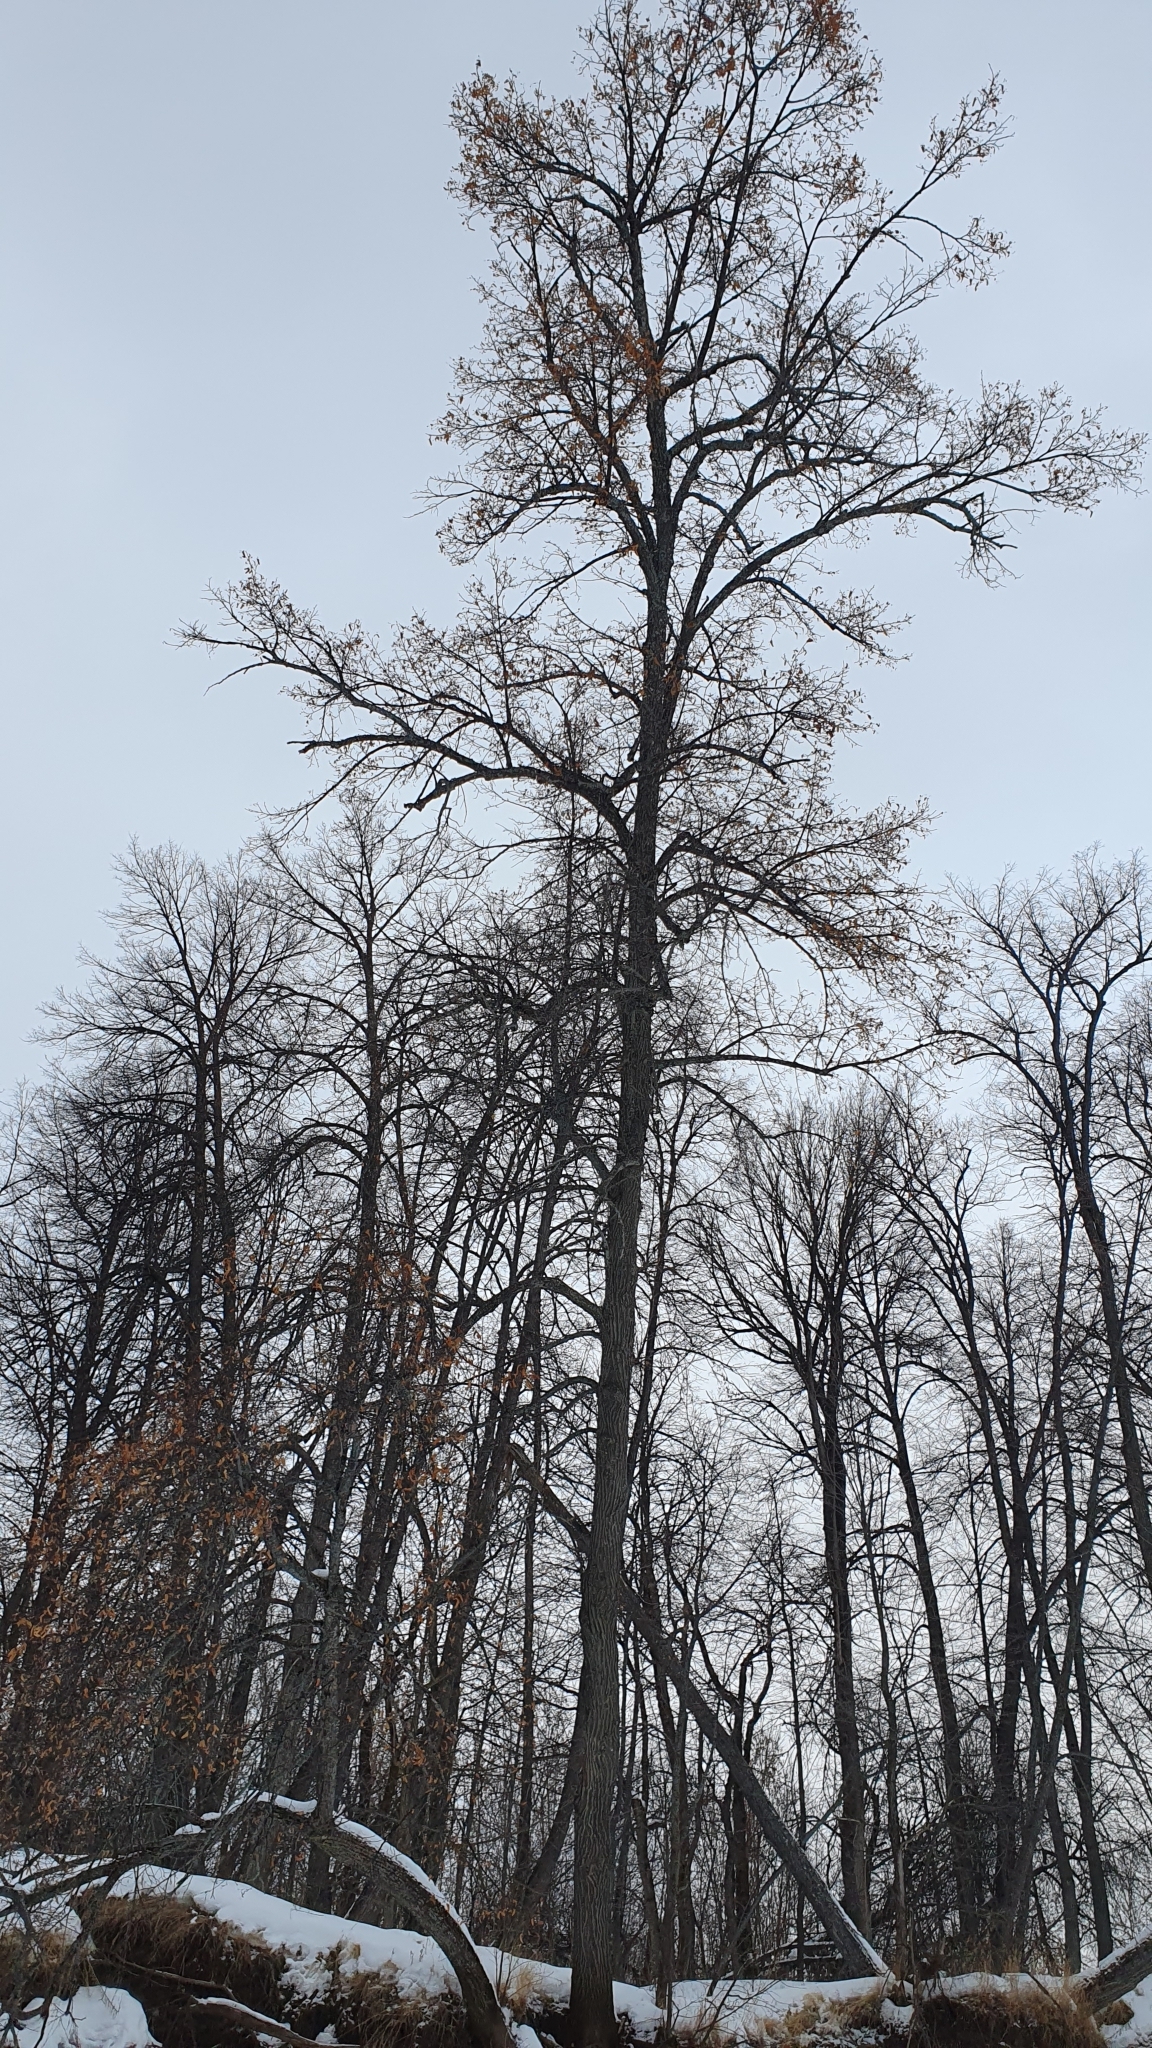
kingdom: Plantae
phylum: Tracheophyta
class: Magnoliopsida
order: Malvales
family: Malvaceae
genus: Tilia
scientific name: Tilia cordata
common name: Small-leaved lime
